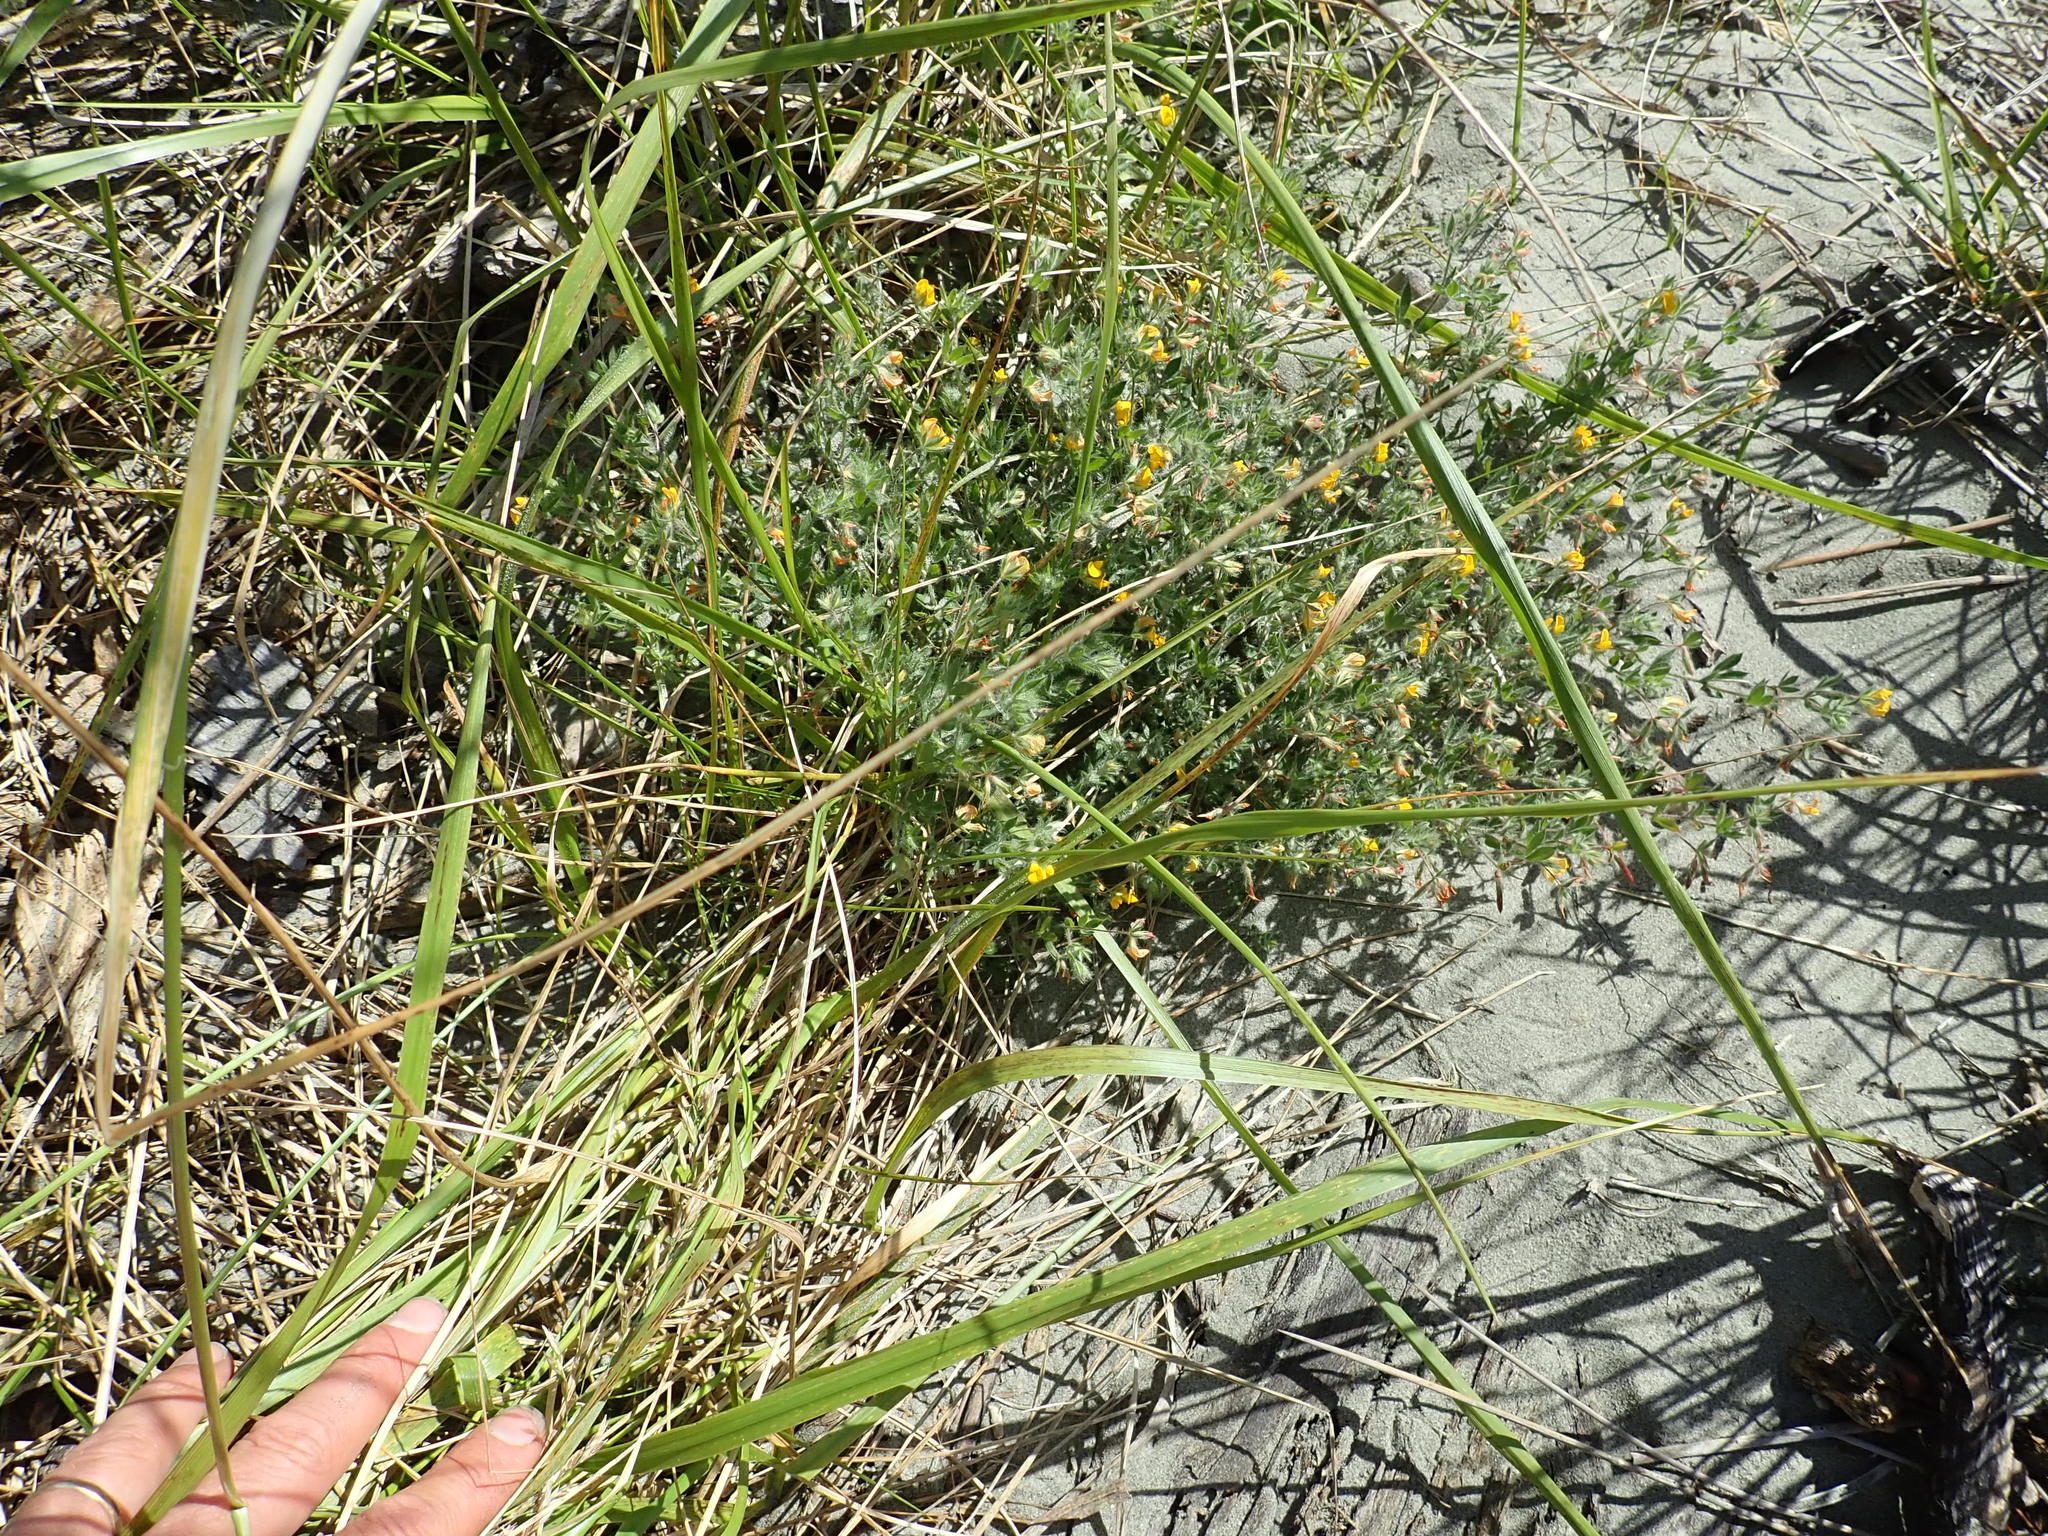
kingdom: Plantae
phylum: Tracheophyta
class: Magnoliopsida
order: Fabales
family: Fabaceae
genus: Lotus
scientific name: Lotus subbiflorus
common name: Hairy bird's-foot trefoil
